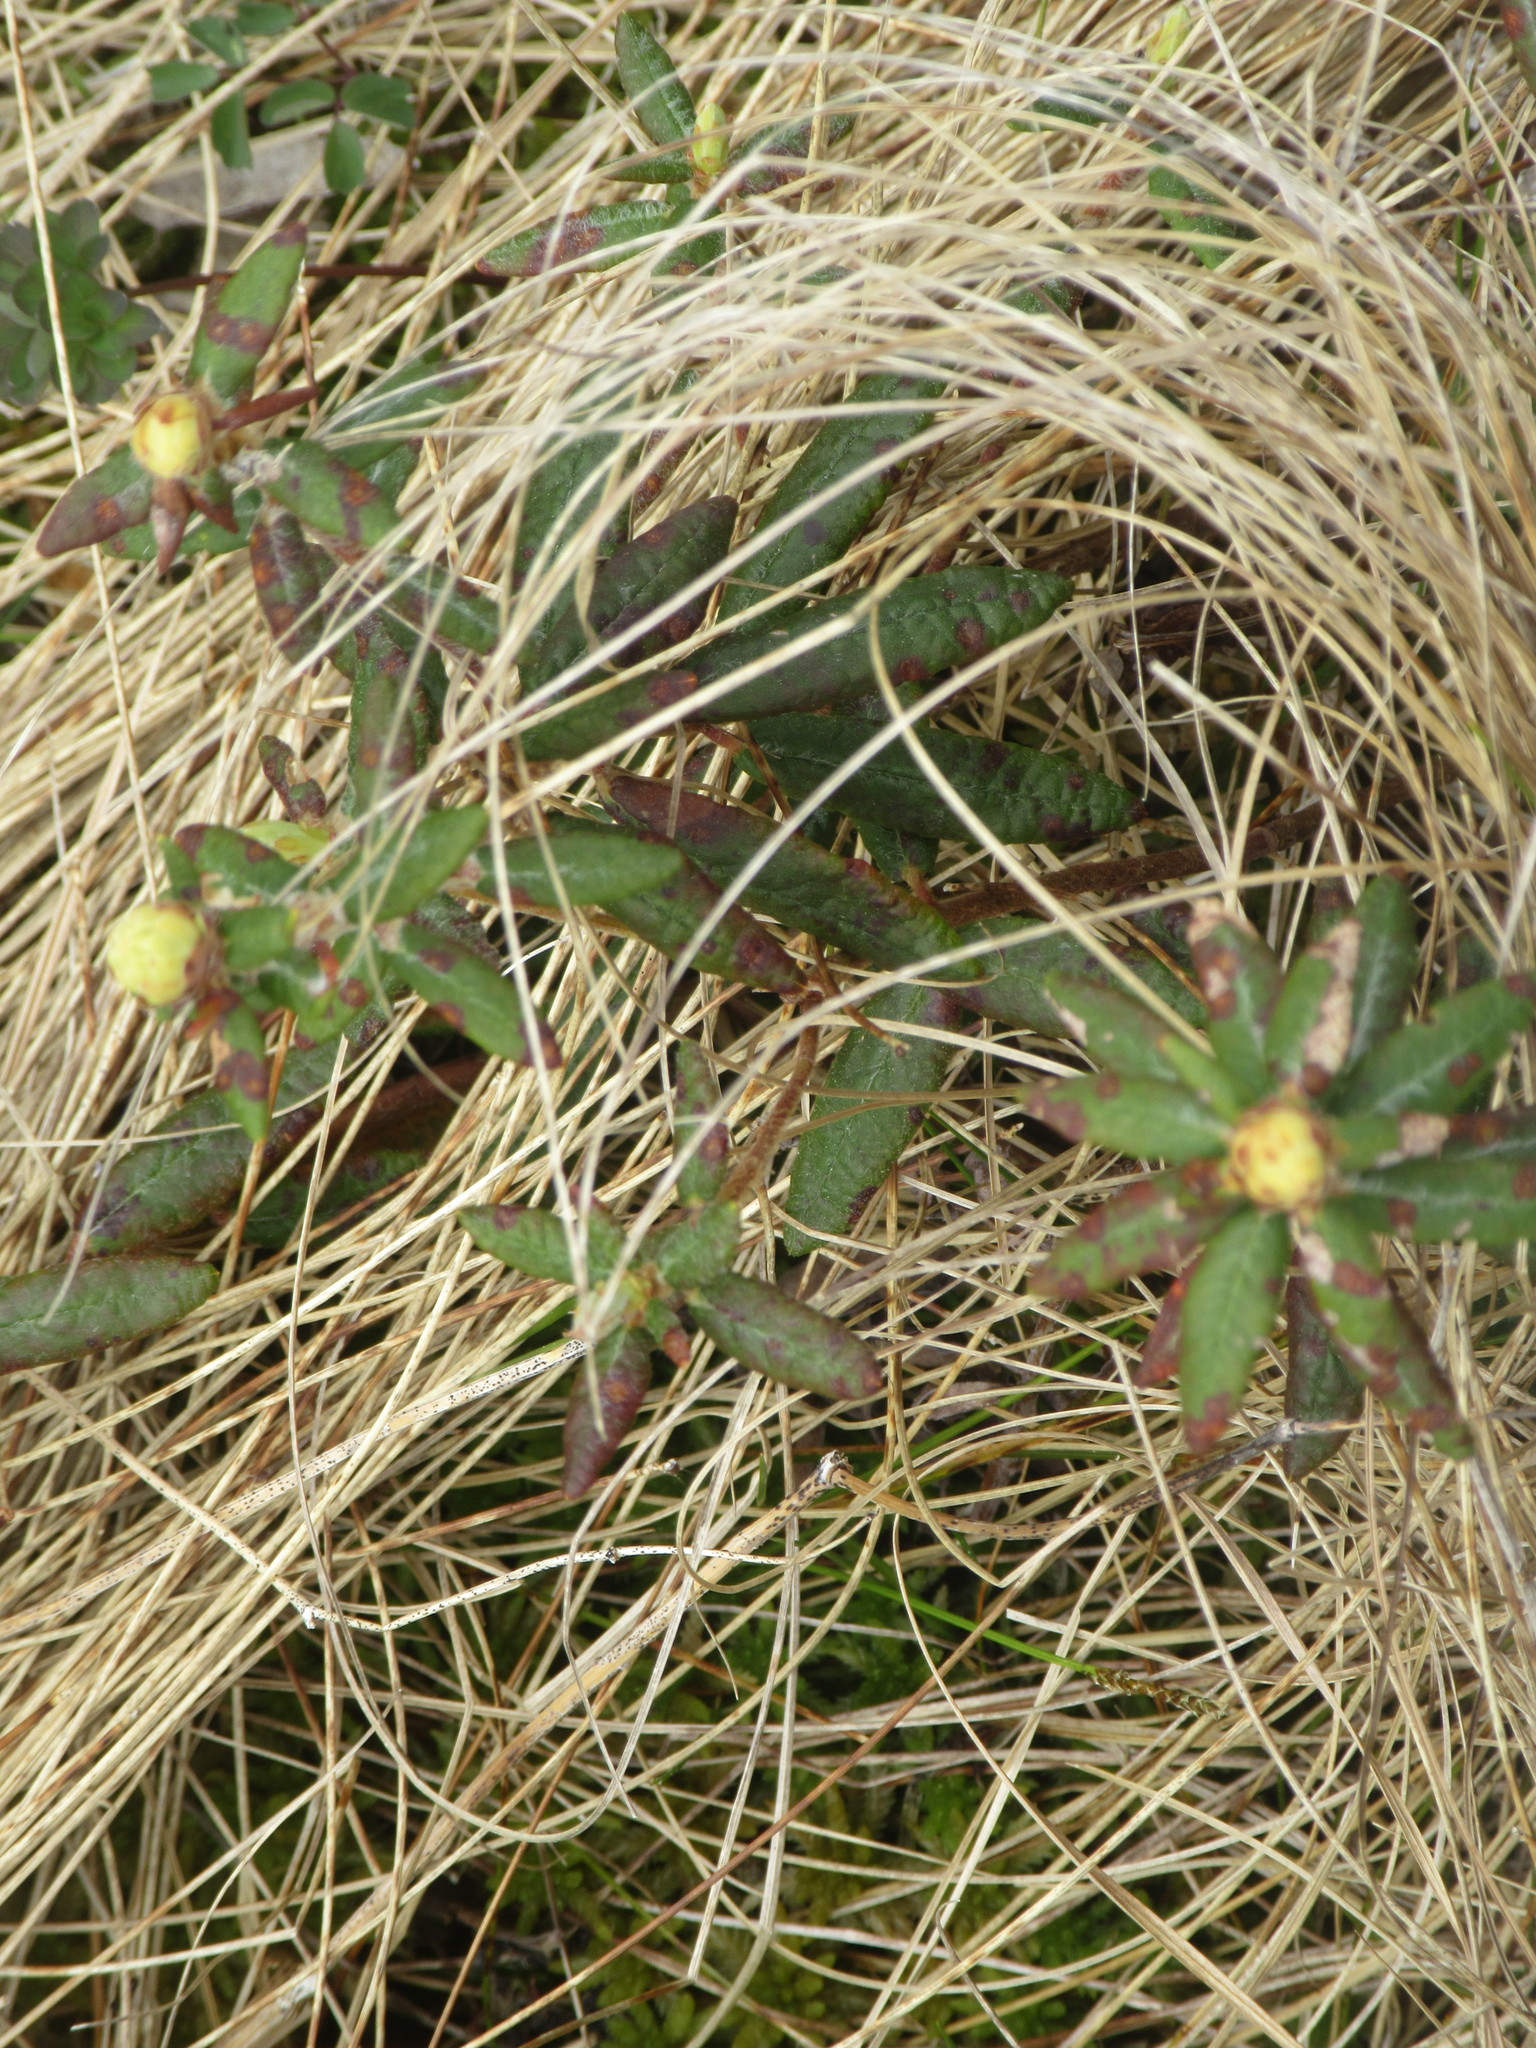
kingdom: Plantae
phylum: Tracheophyta
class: Magnoliopsida
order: Ericales
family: Ericaceae
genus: Rhododendron
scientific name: Rhododendron groenlandicum
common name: Bog labrador tea
